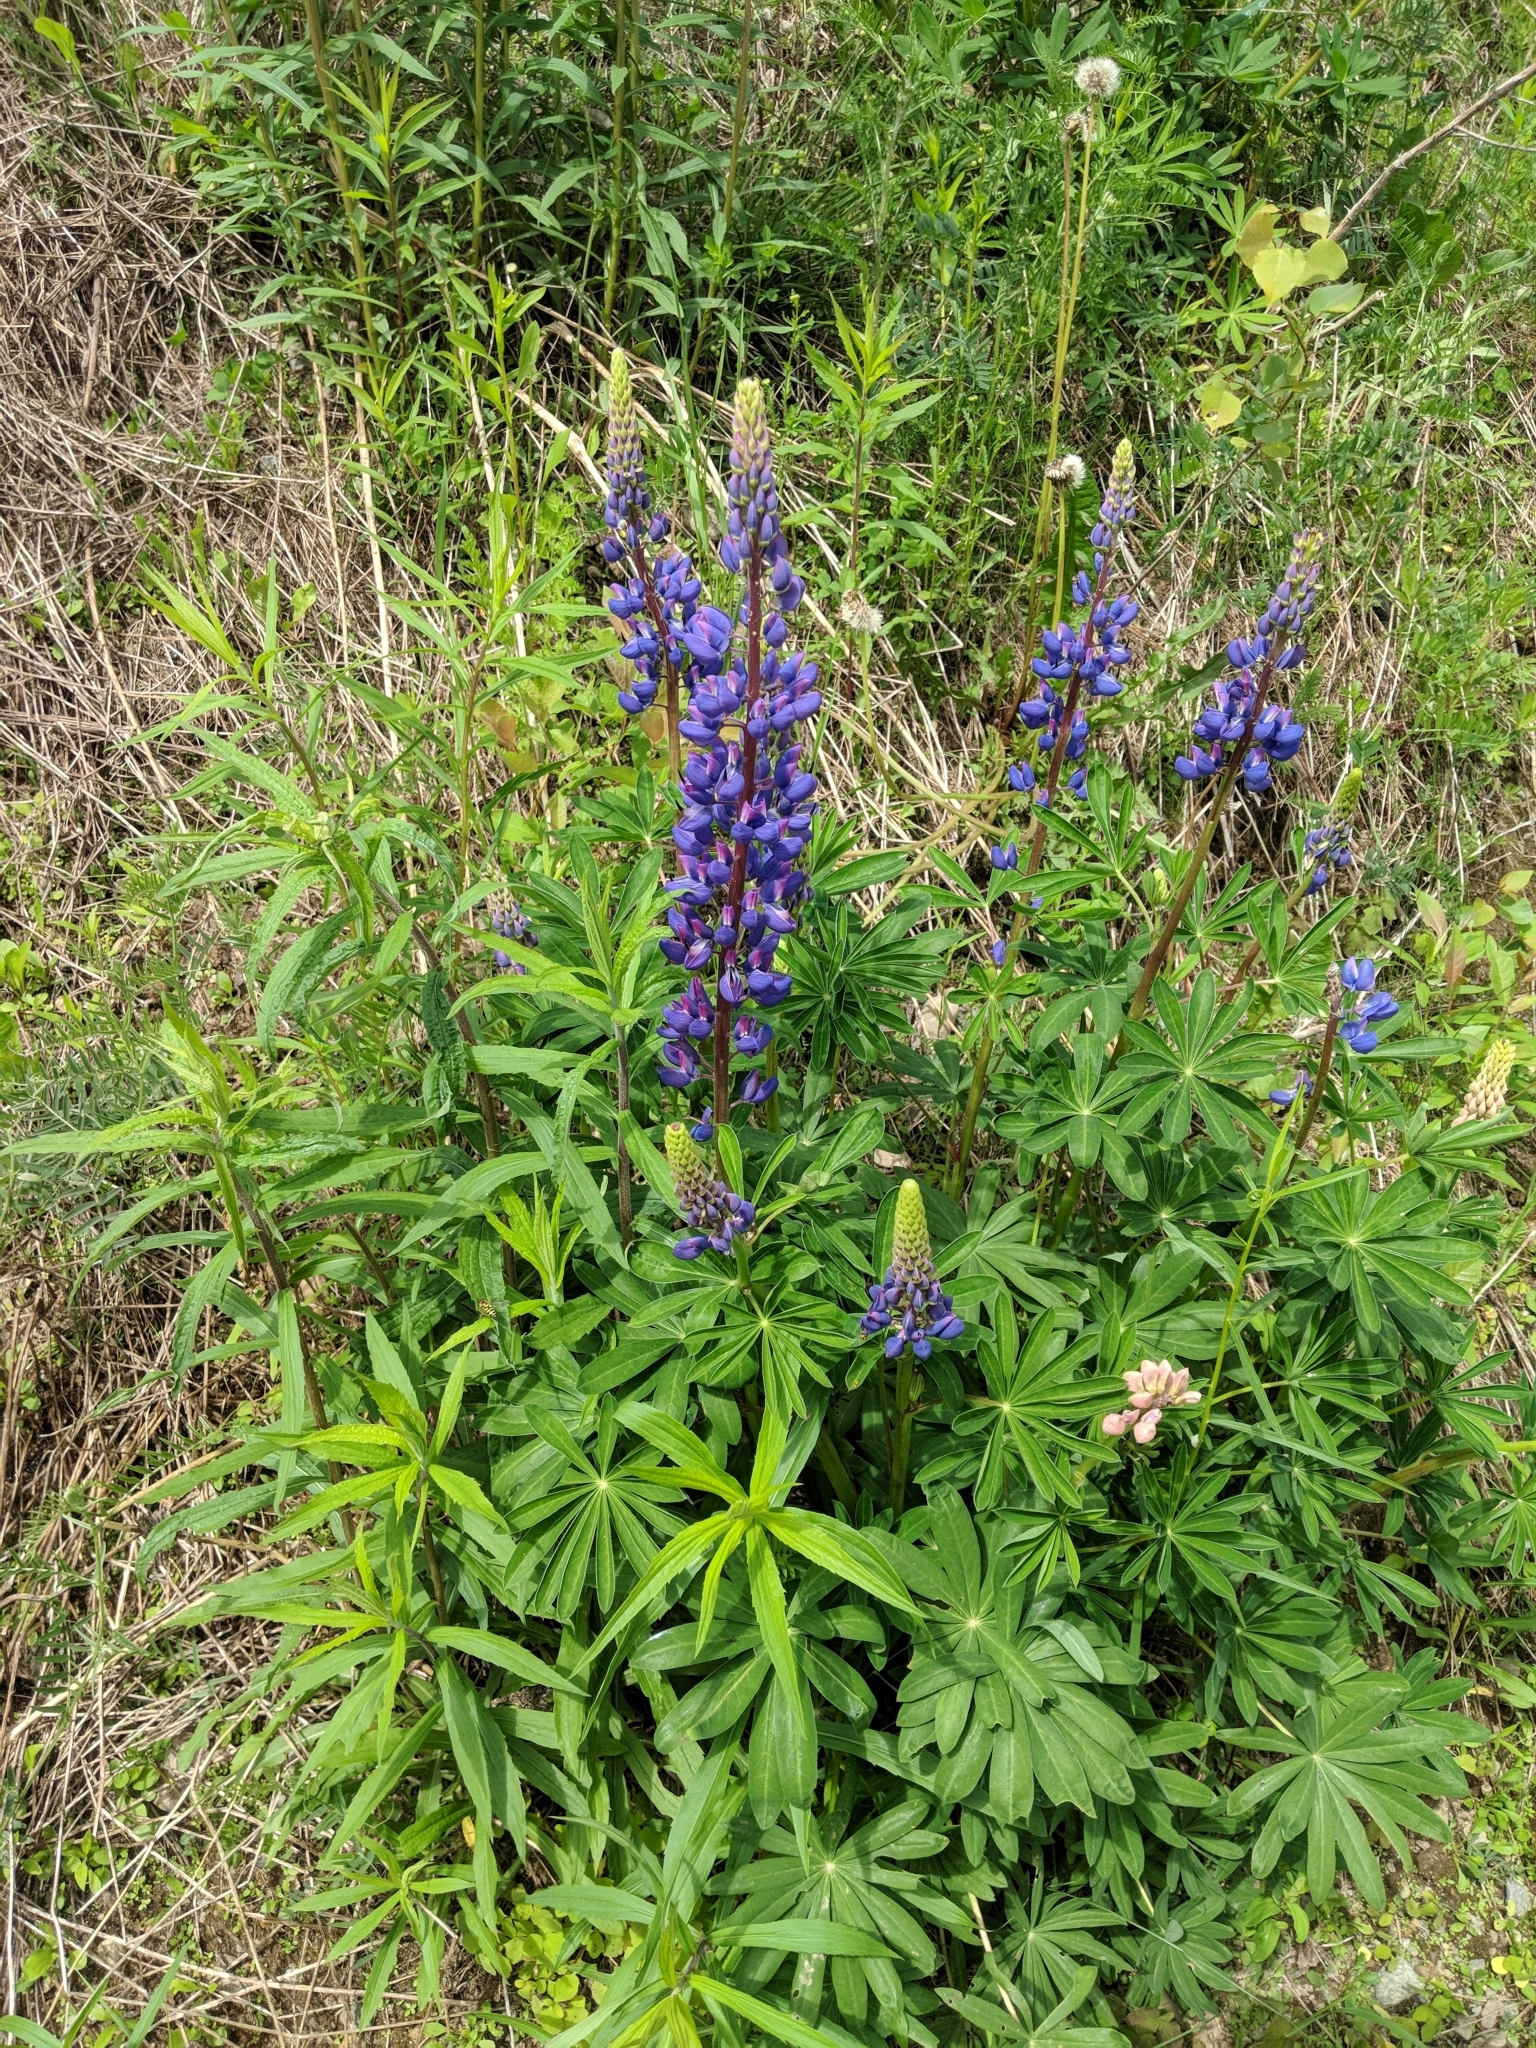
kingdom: Plantae
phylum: Tracheophyta
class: Magnoliopsida
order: Fabales
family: Fabaceae
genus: Lupinus
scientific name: Lupinus polyphyllus
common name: Garden lupin
